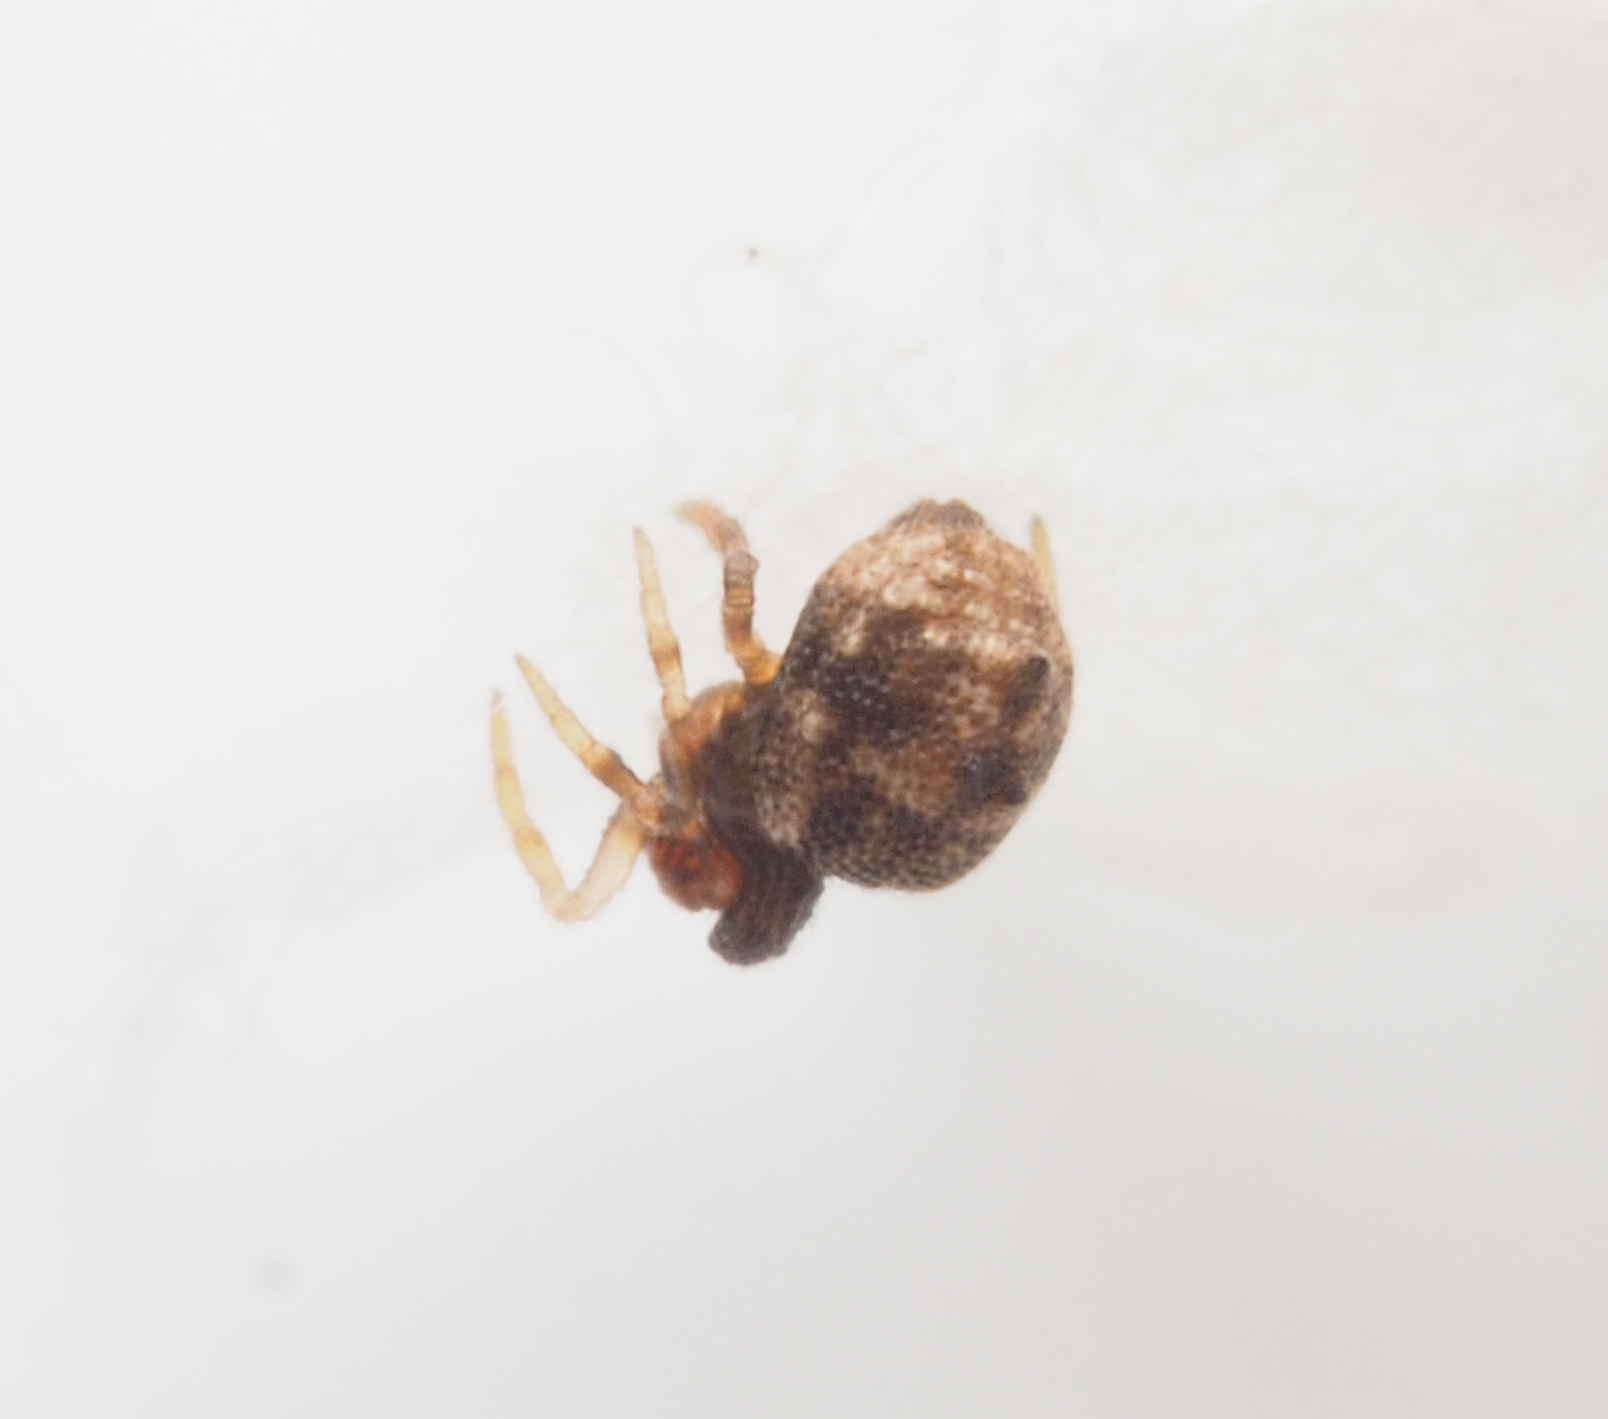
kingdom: Animalia
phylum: Arthropoda
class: Arachnida
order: Araneae
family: Theridiidae
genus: Phoroncidia
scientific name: Phoroncidia trituberculata
